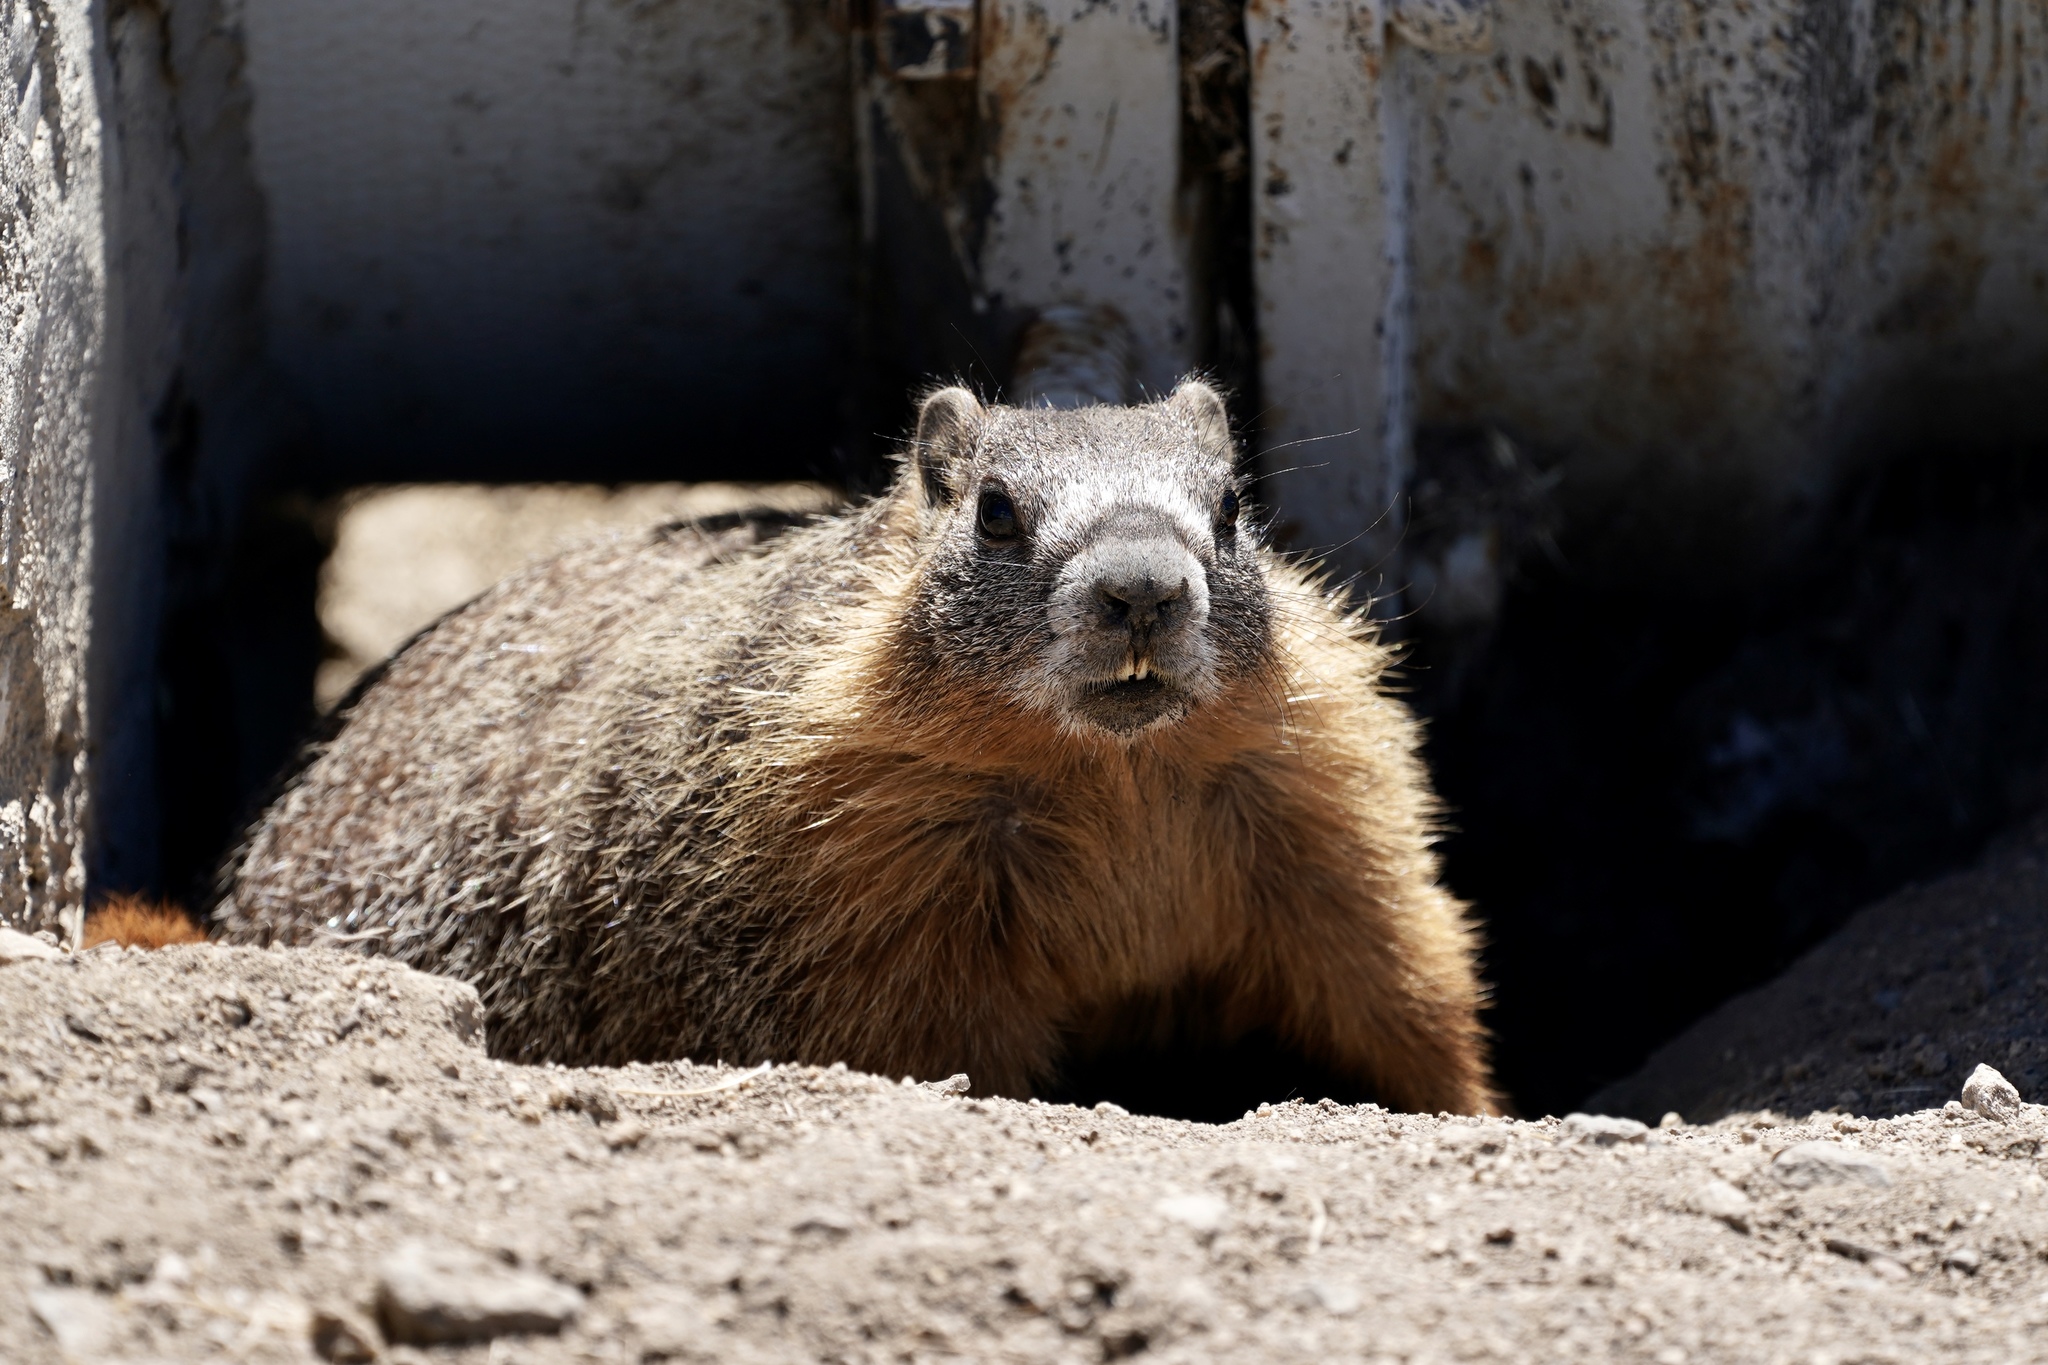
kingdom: Animalia
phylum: Chordata
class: Mammalia
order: Rodentia
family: Sciuridae
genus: Marmota
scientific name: Marmota flaviventris
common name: Yellow-bellied marmot
